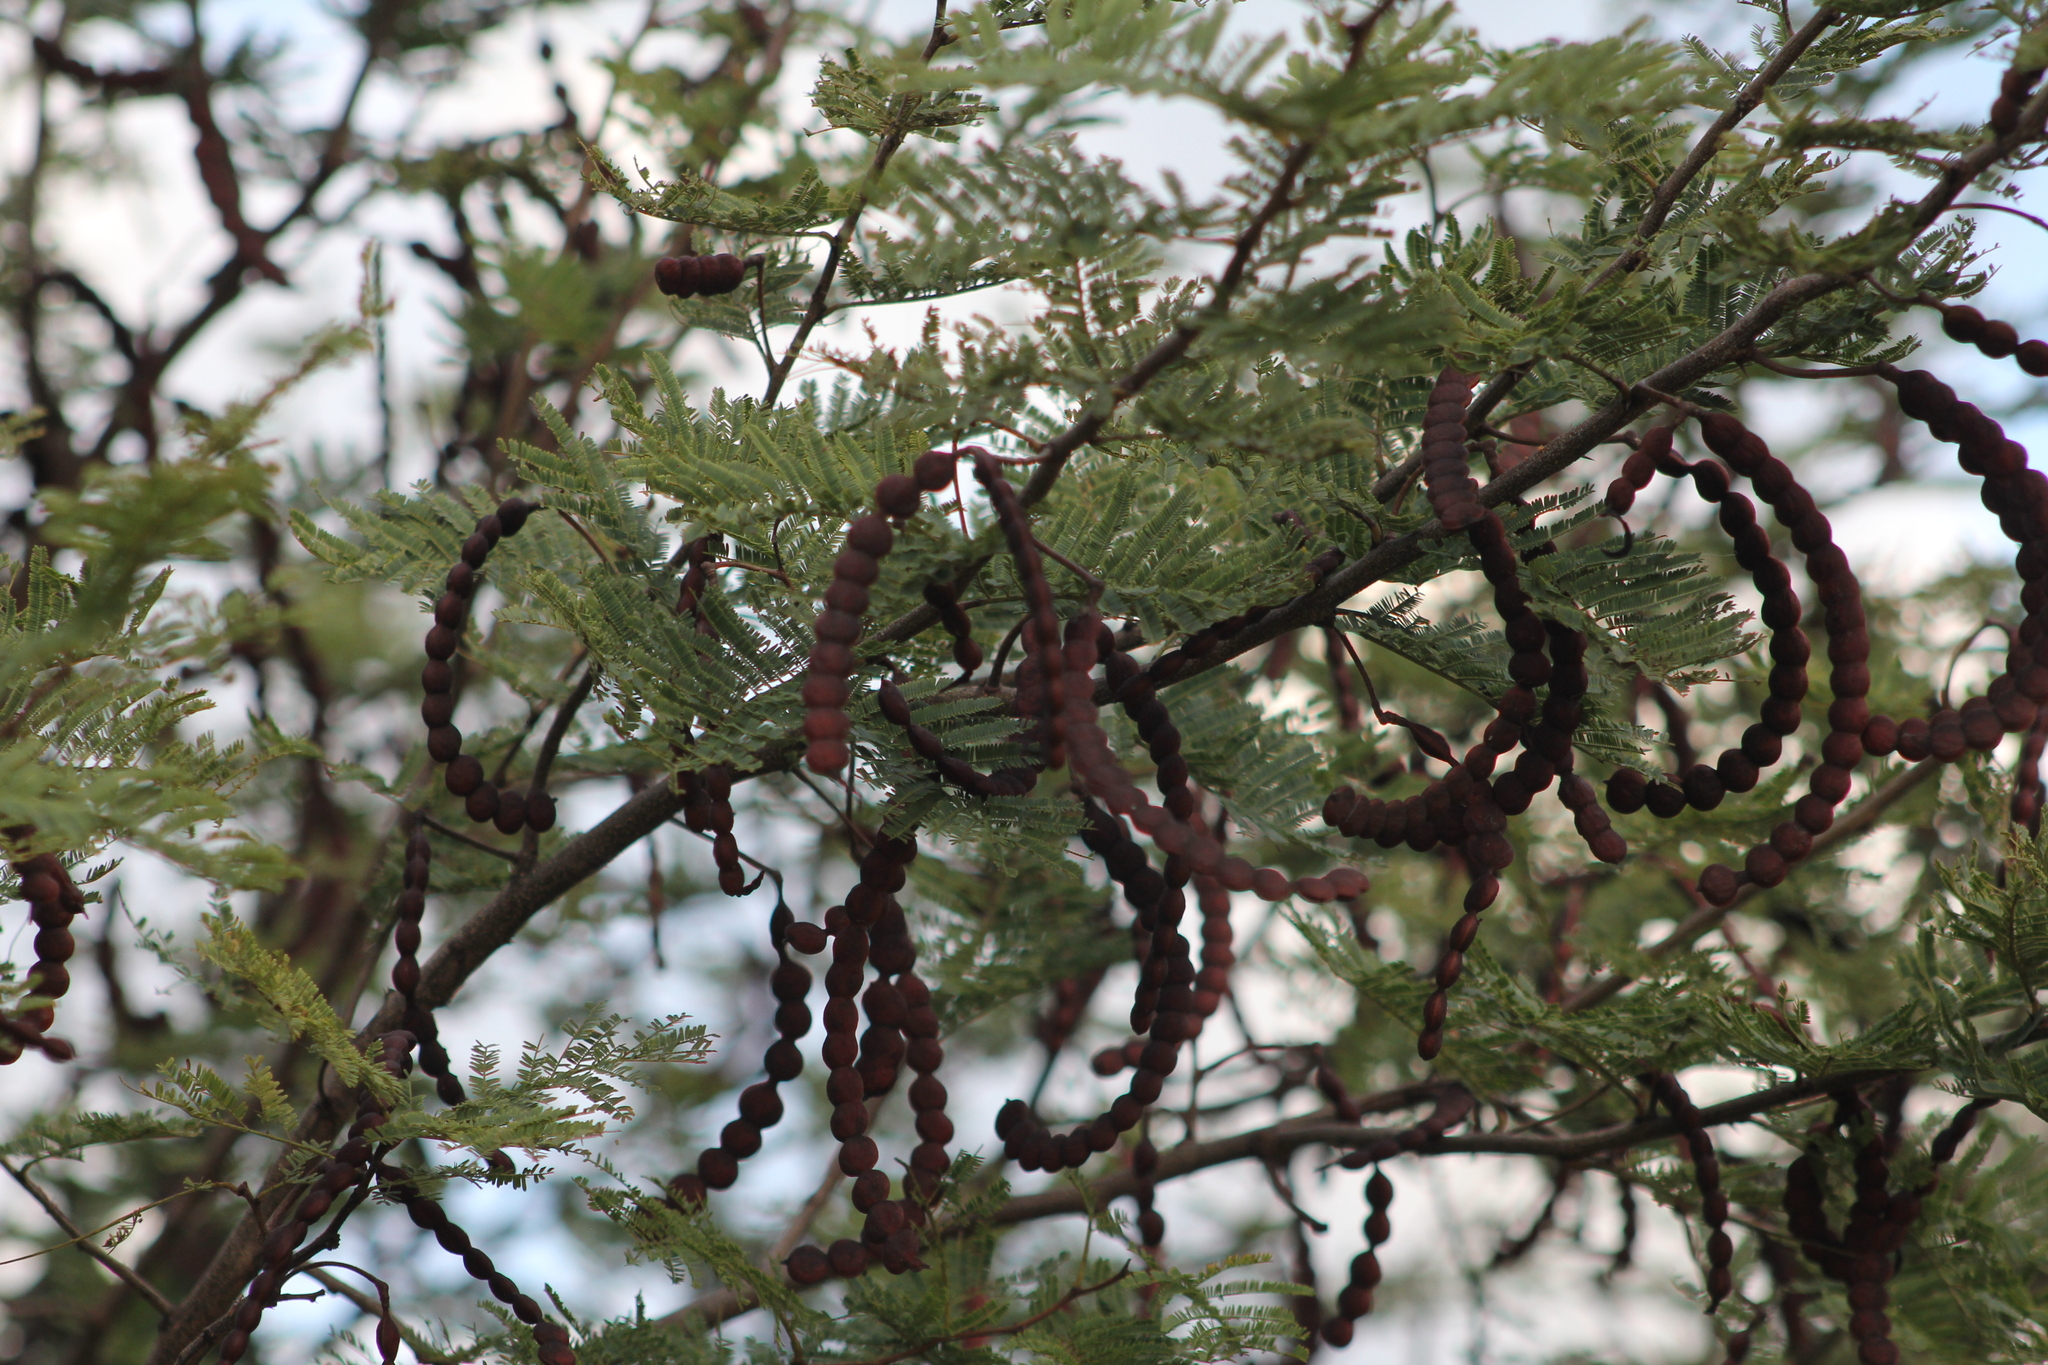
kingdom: Plantae
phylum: Tracheophyta
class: Magnoliopsida
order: Fabales
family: Fabaceae
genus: Vachellia
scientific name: Vachellia aroma
